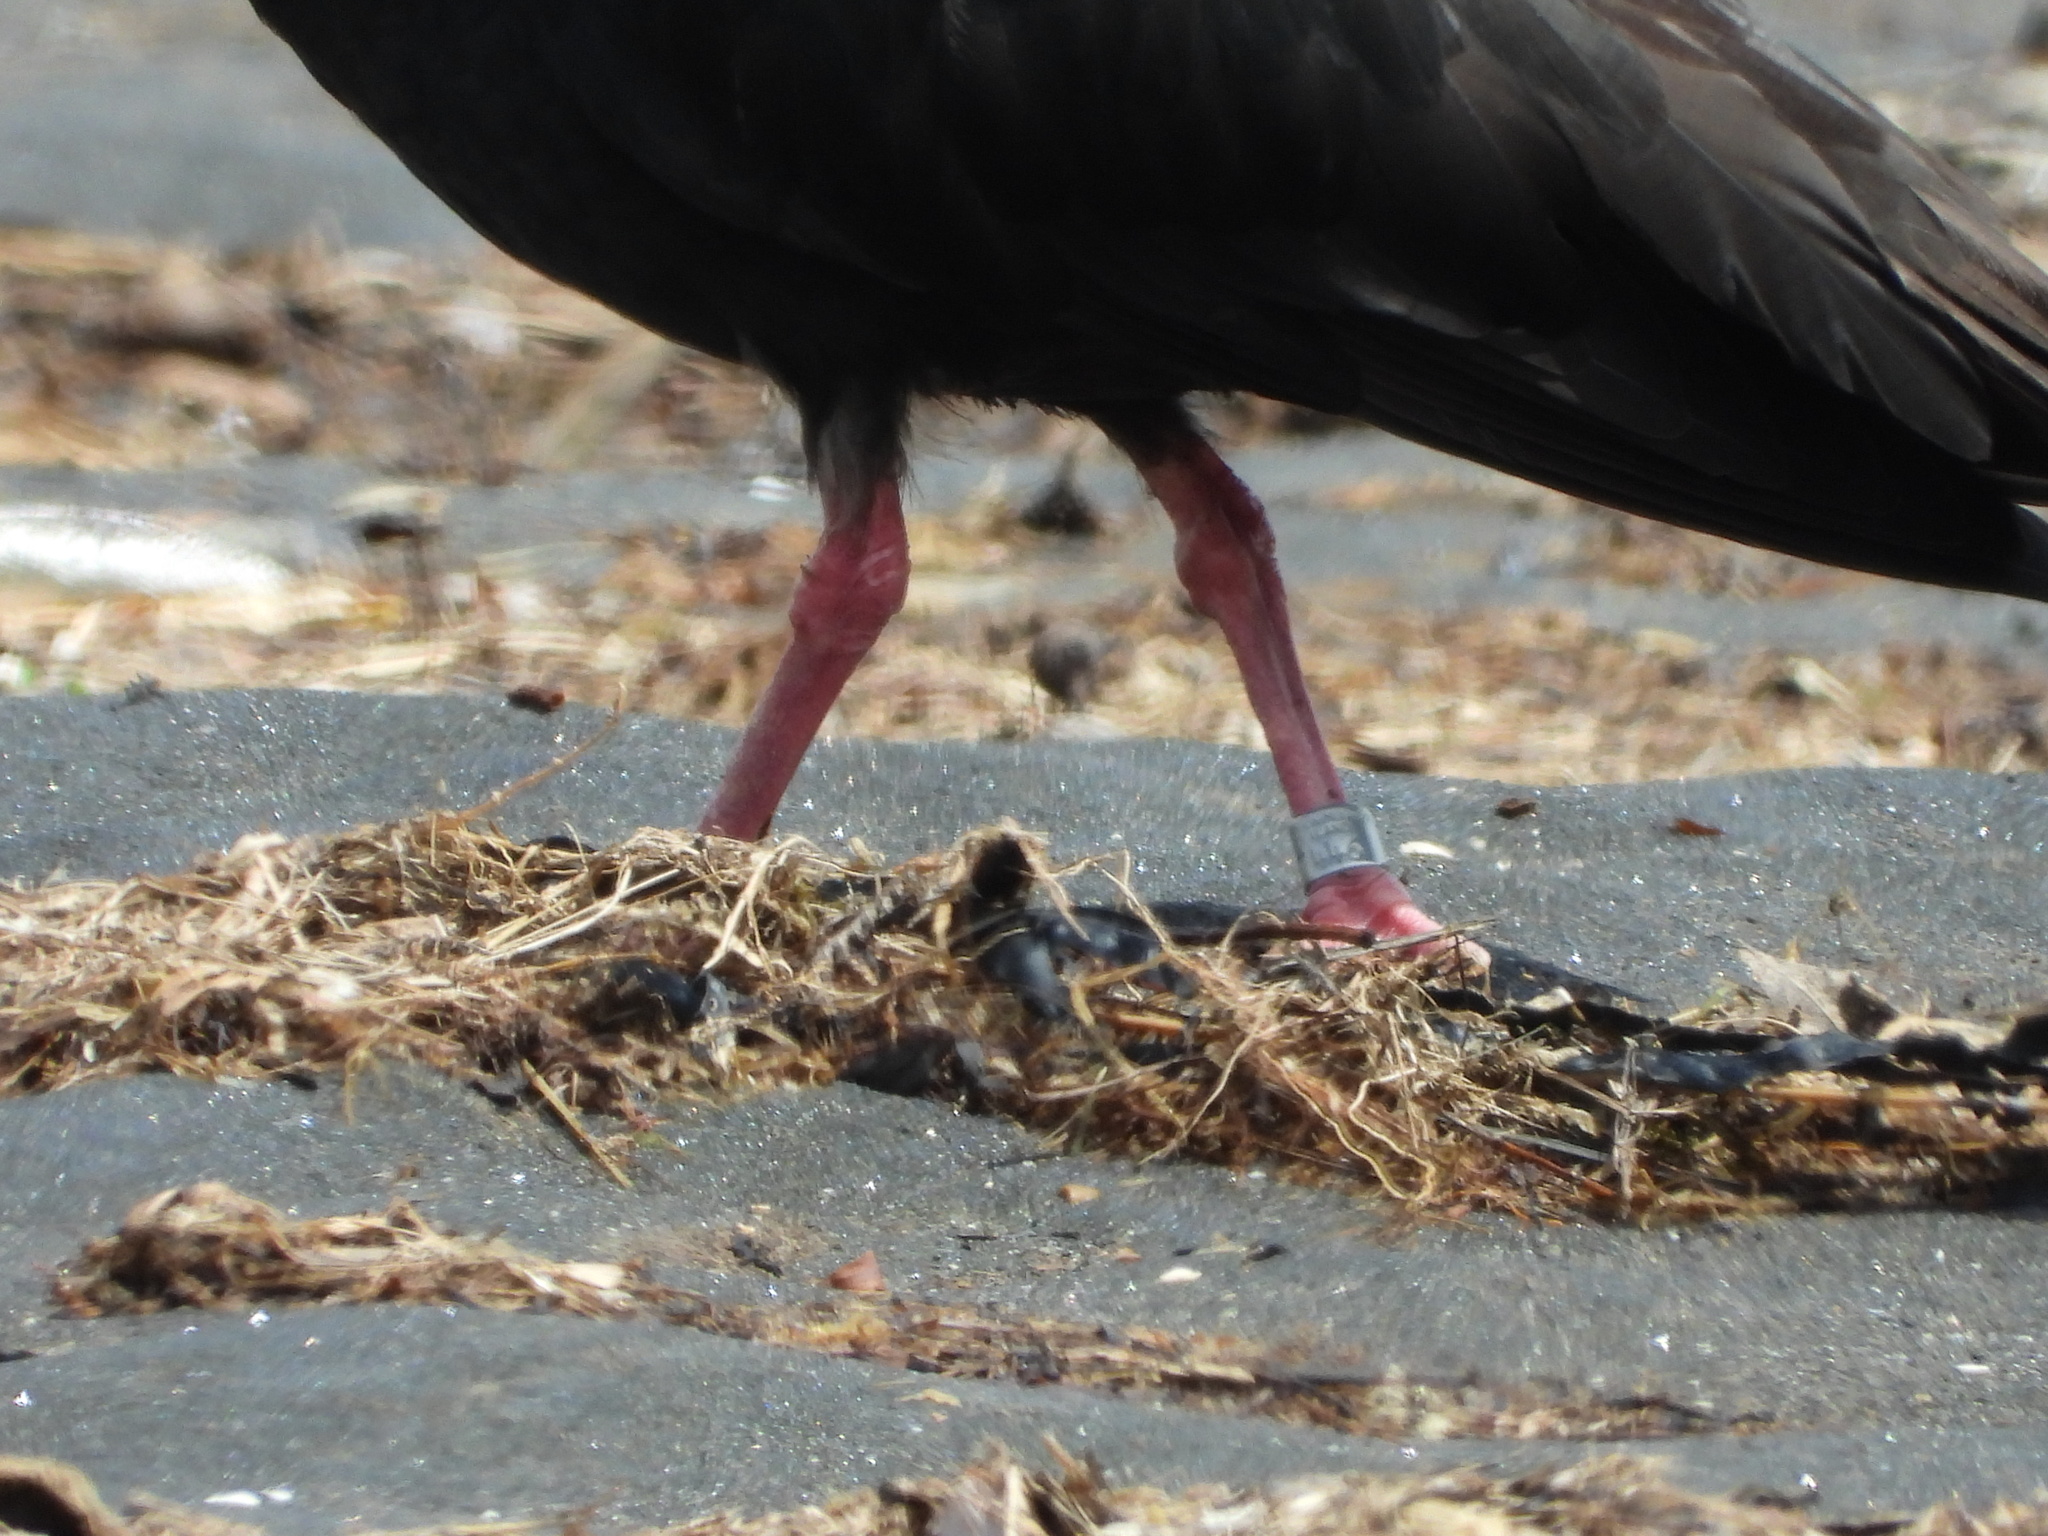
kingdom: Animalia
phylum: Chordata
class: Aves
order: Charadriiformes
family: Haematopodidae
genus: Haematopus
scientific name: Haematopus unicolor
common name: Variable oystercatcher
